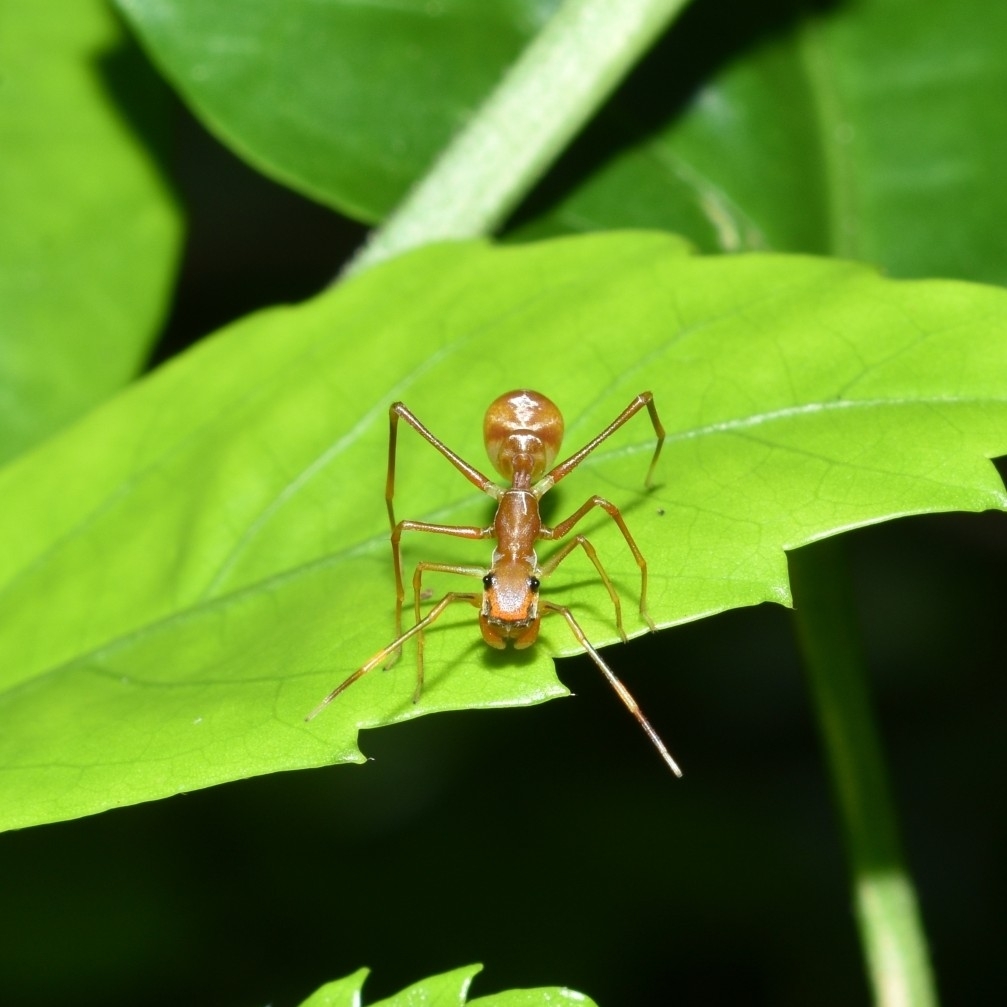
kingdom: Animalia
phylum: Arthropoda
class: Arachnida
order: Araneae
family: Salticidae
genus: Myrmaplata
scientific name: Myrmaplata plataleoides
